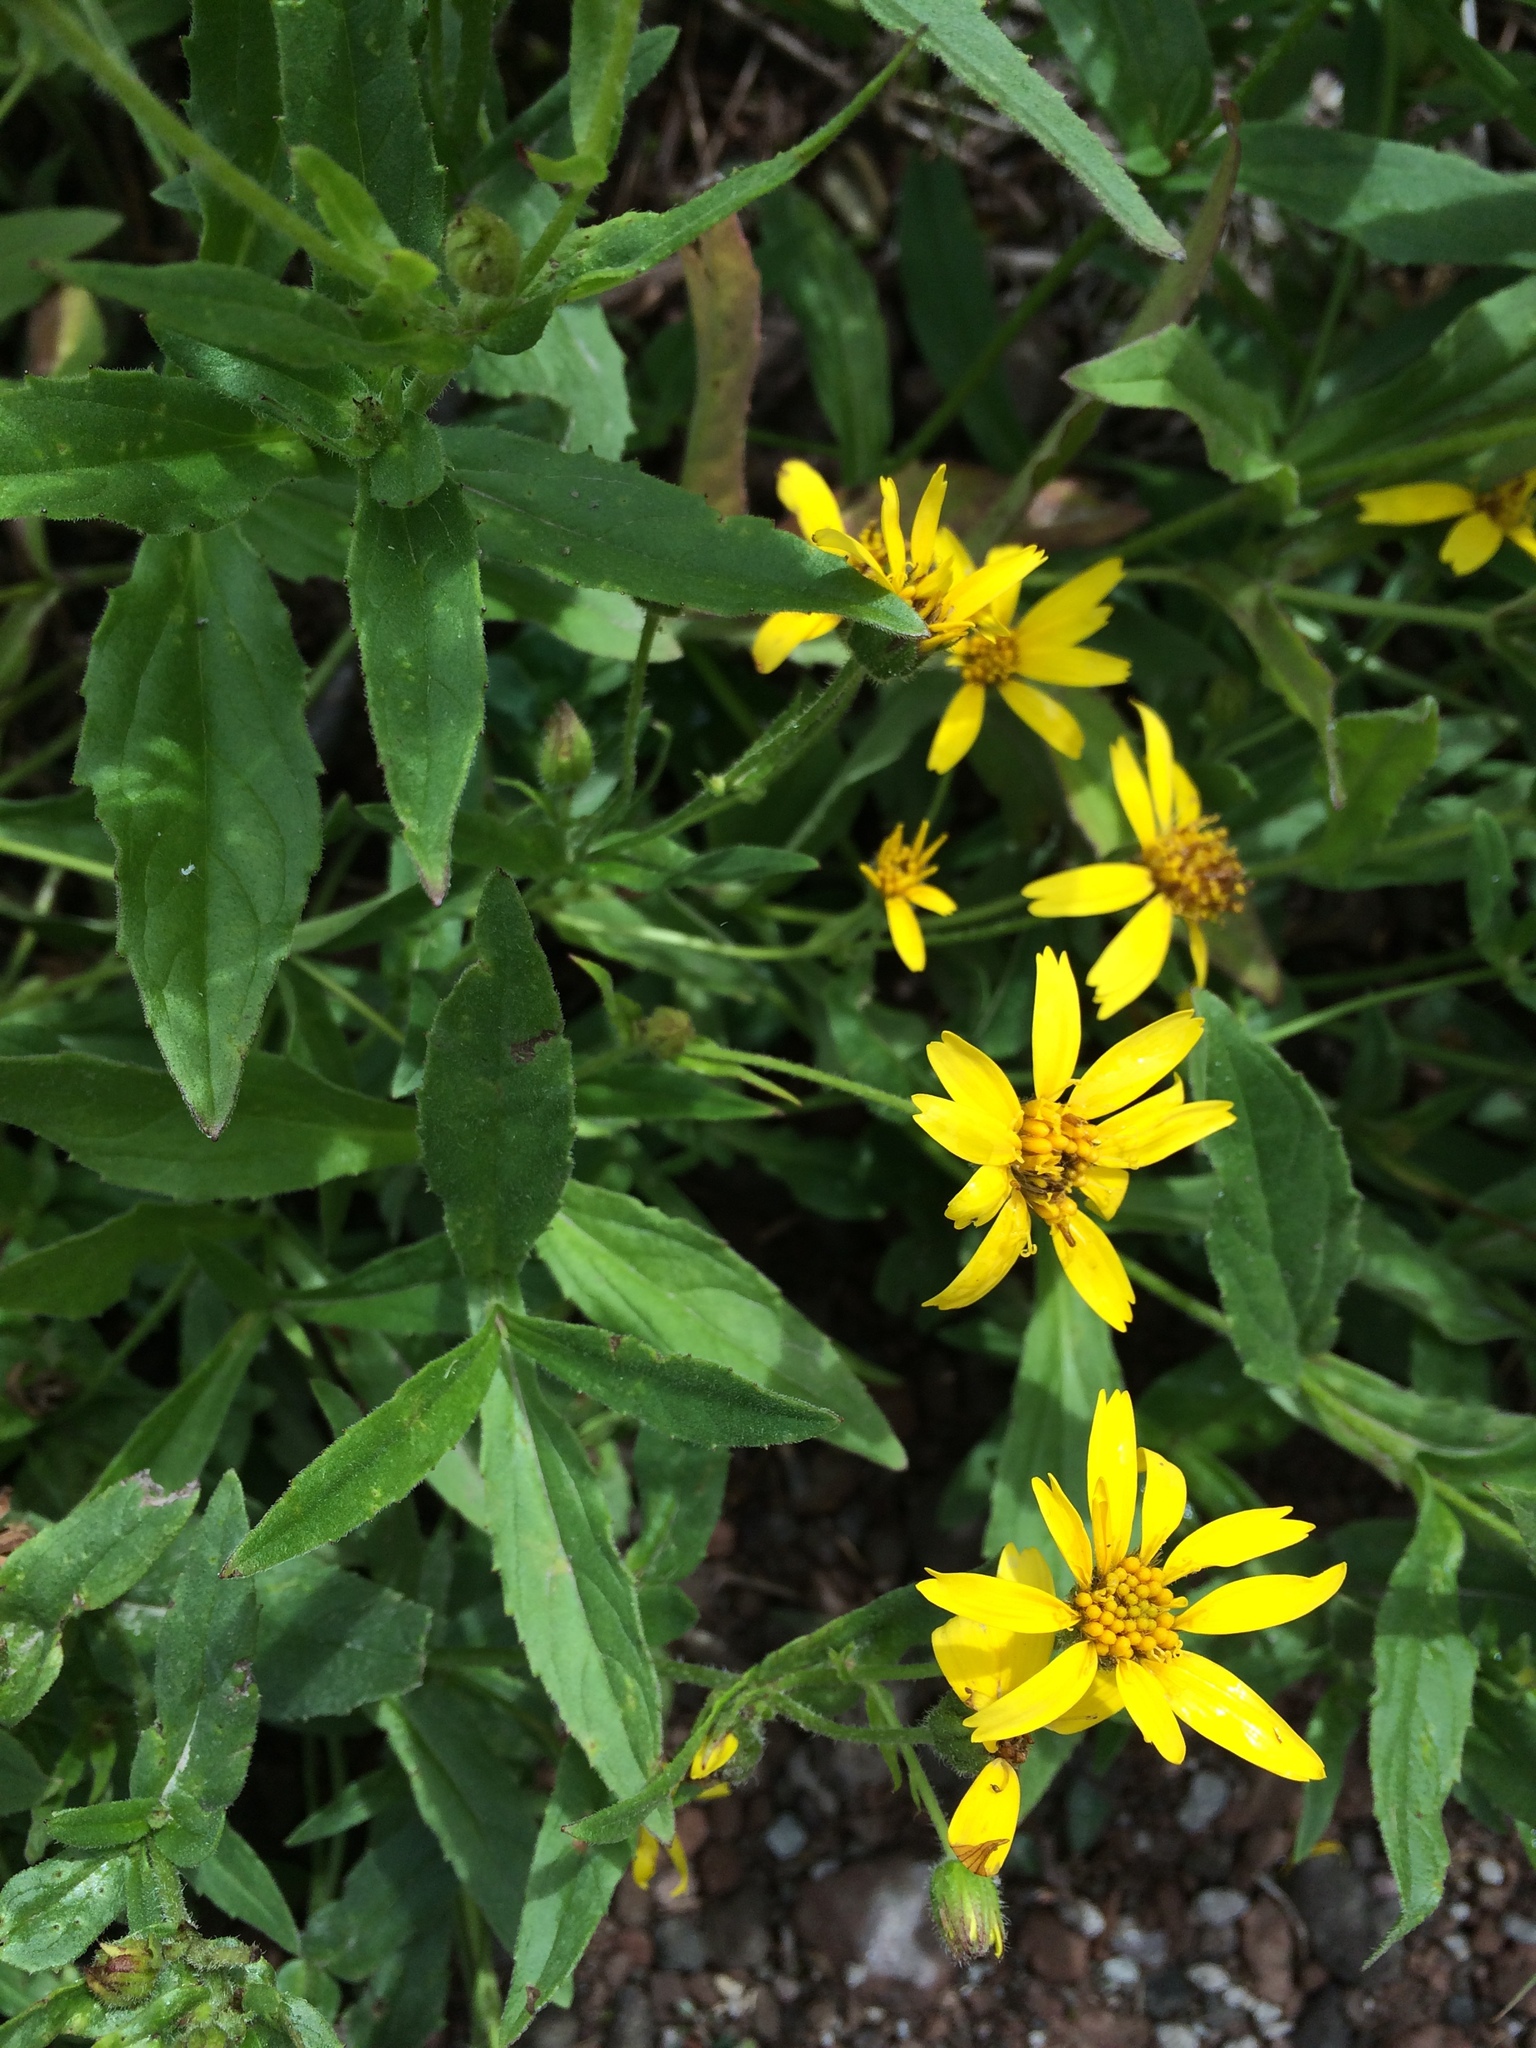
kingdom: Plantae
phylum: Tracheophyta
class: Magnoliopsida
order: Asterales
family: Asteraceae
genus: Arnica
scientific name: Arnica latifolia
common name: Arnica
